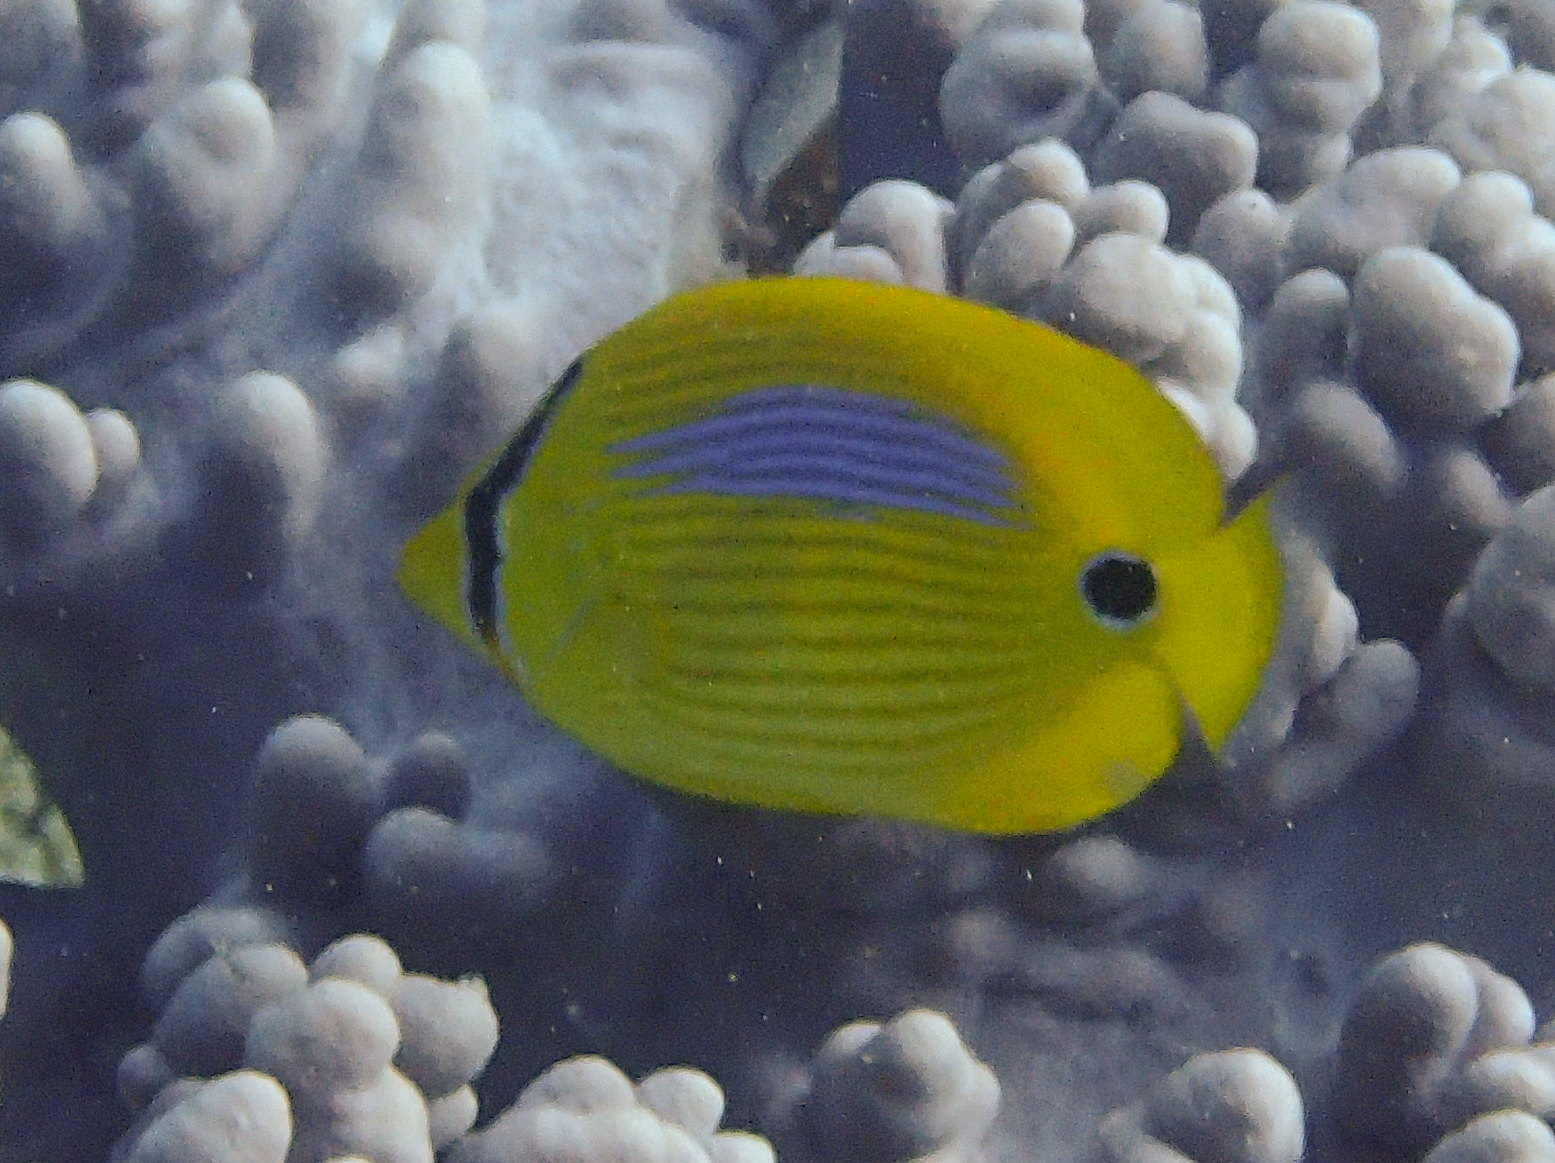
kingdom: Animalia
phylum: Chordata
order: Perciformes
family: Chaetodontidae
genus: Chaetodon
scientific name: Chaetodon plebeius
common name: Bluespot butterflyfish
